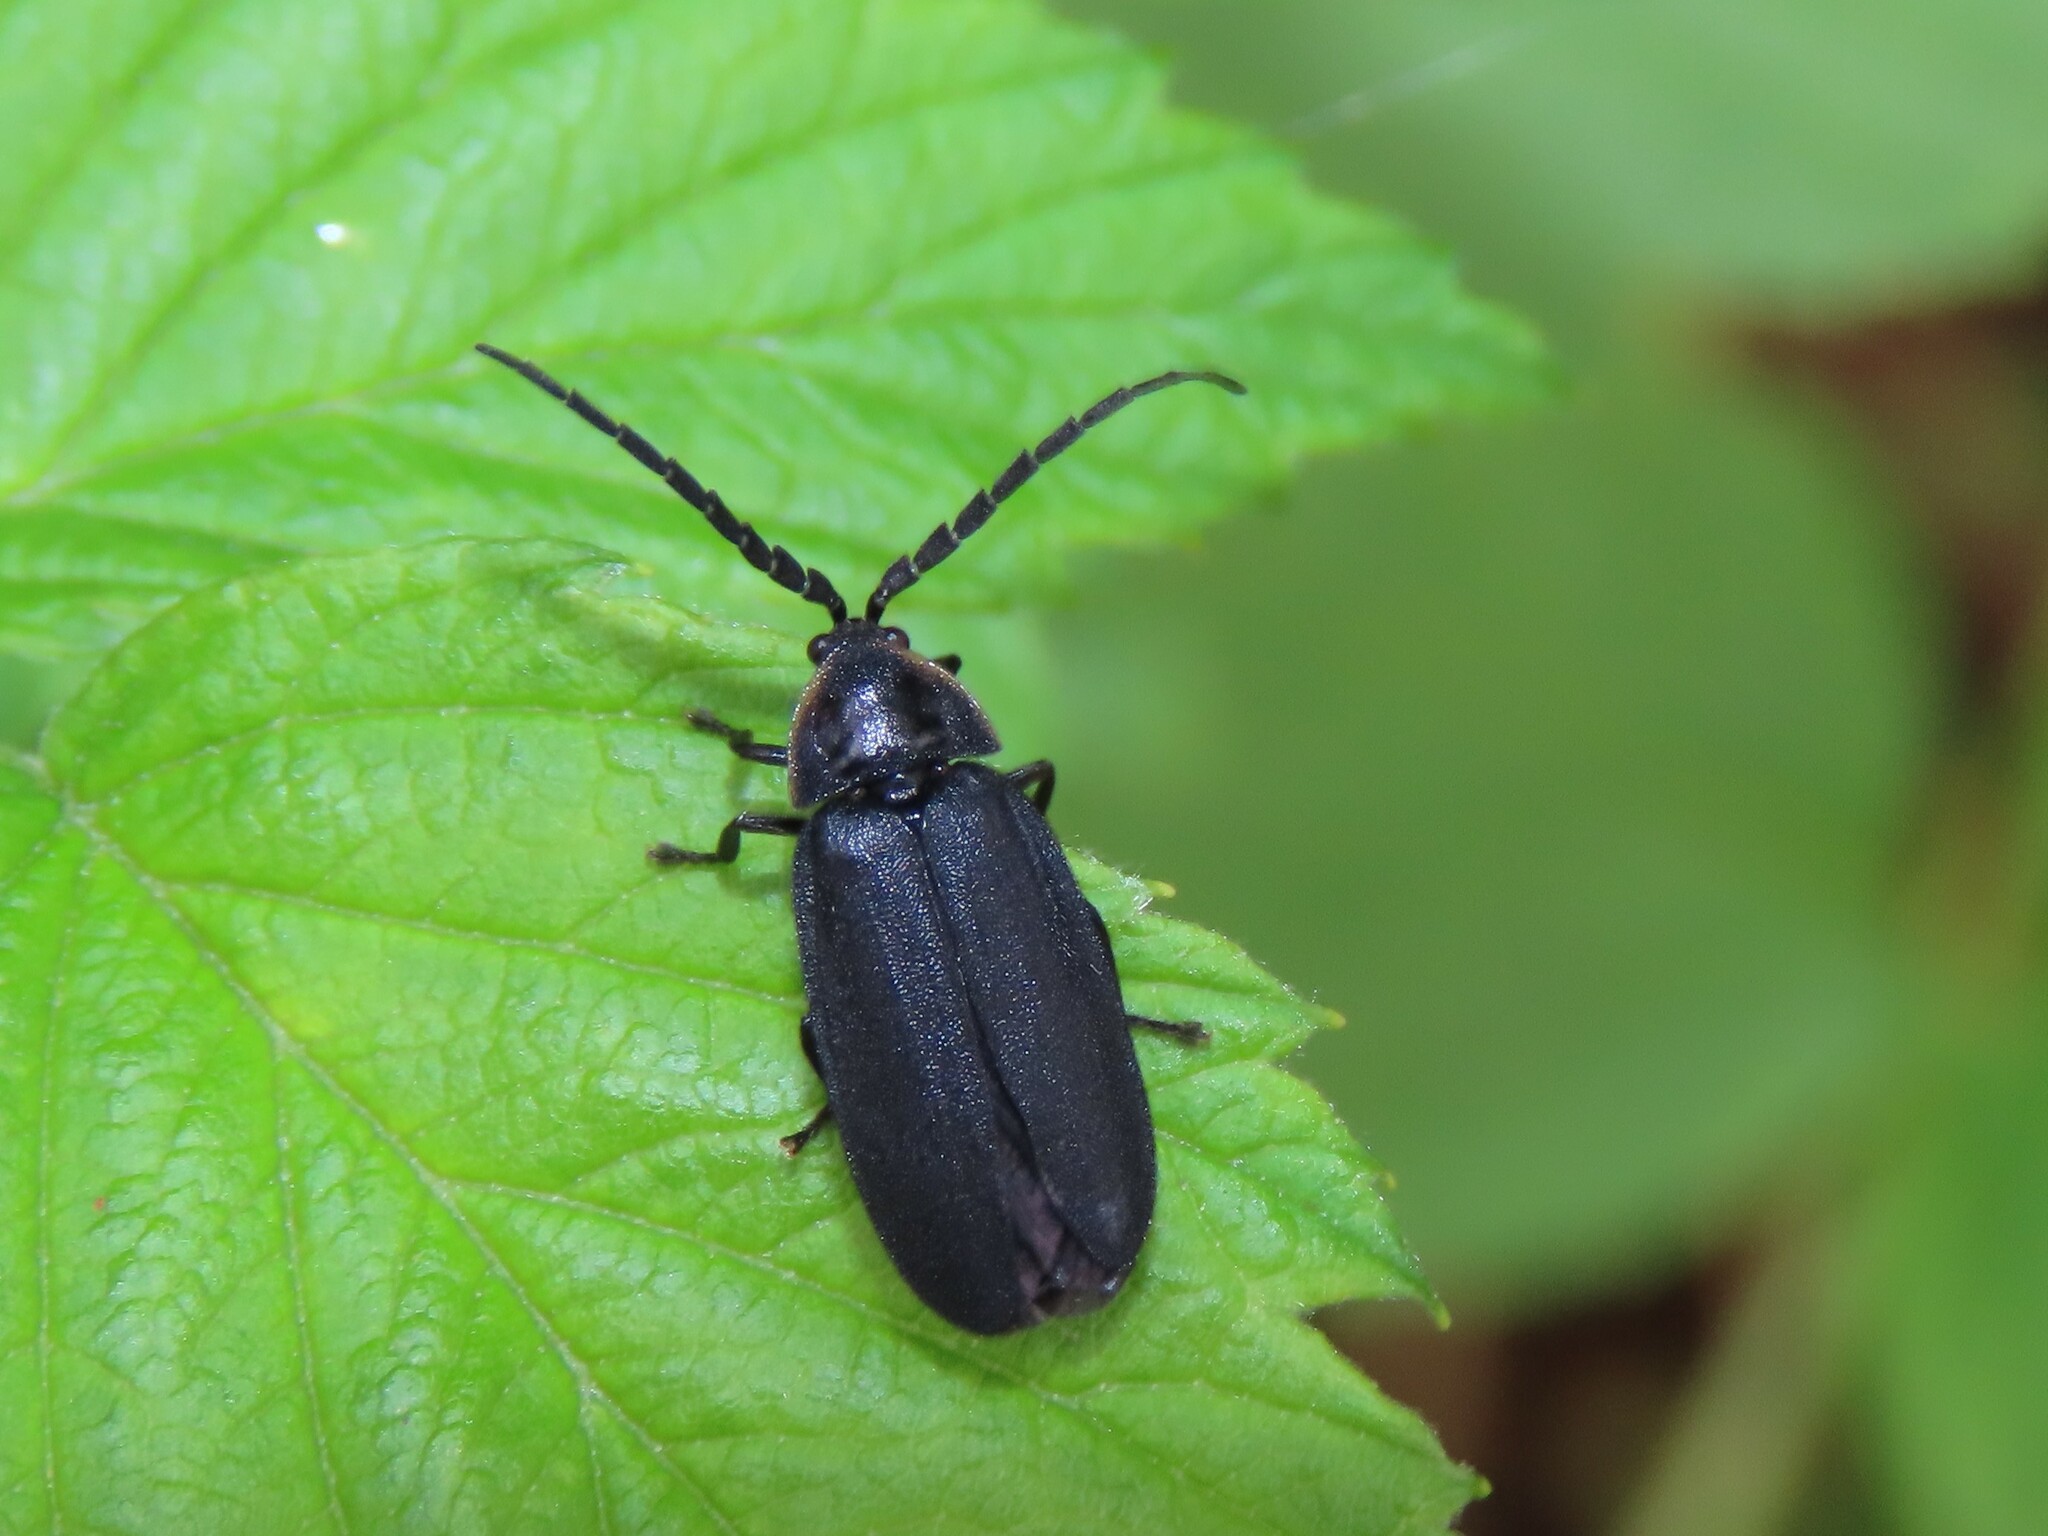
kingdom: Animalia
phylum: Arthropoda
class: Insecta
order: Coleoptera
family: Lampyridae
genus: Lucidota
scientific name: Lucidota atra
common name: Black firefly
